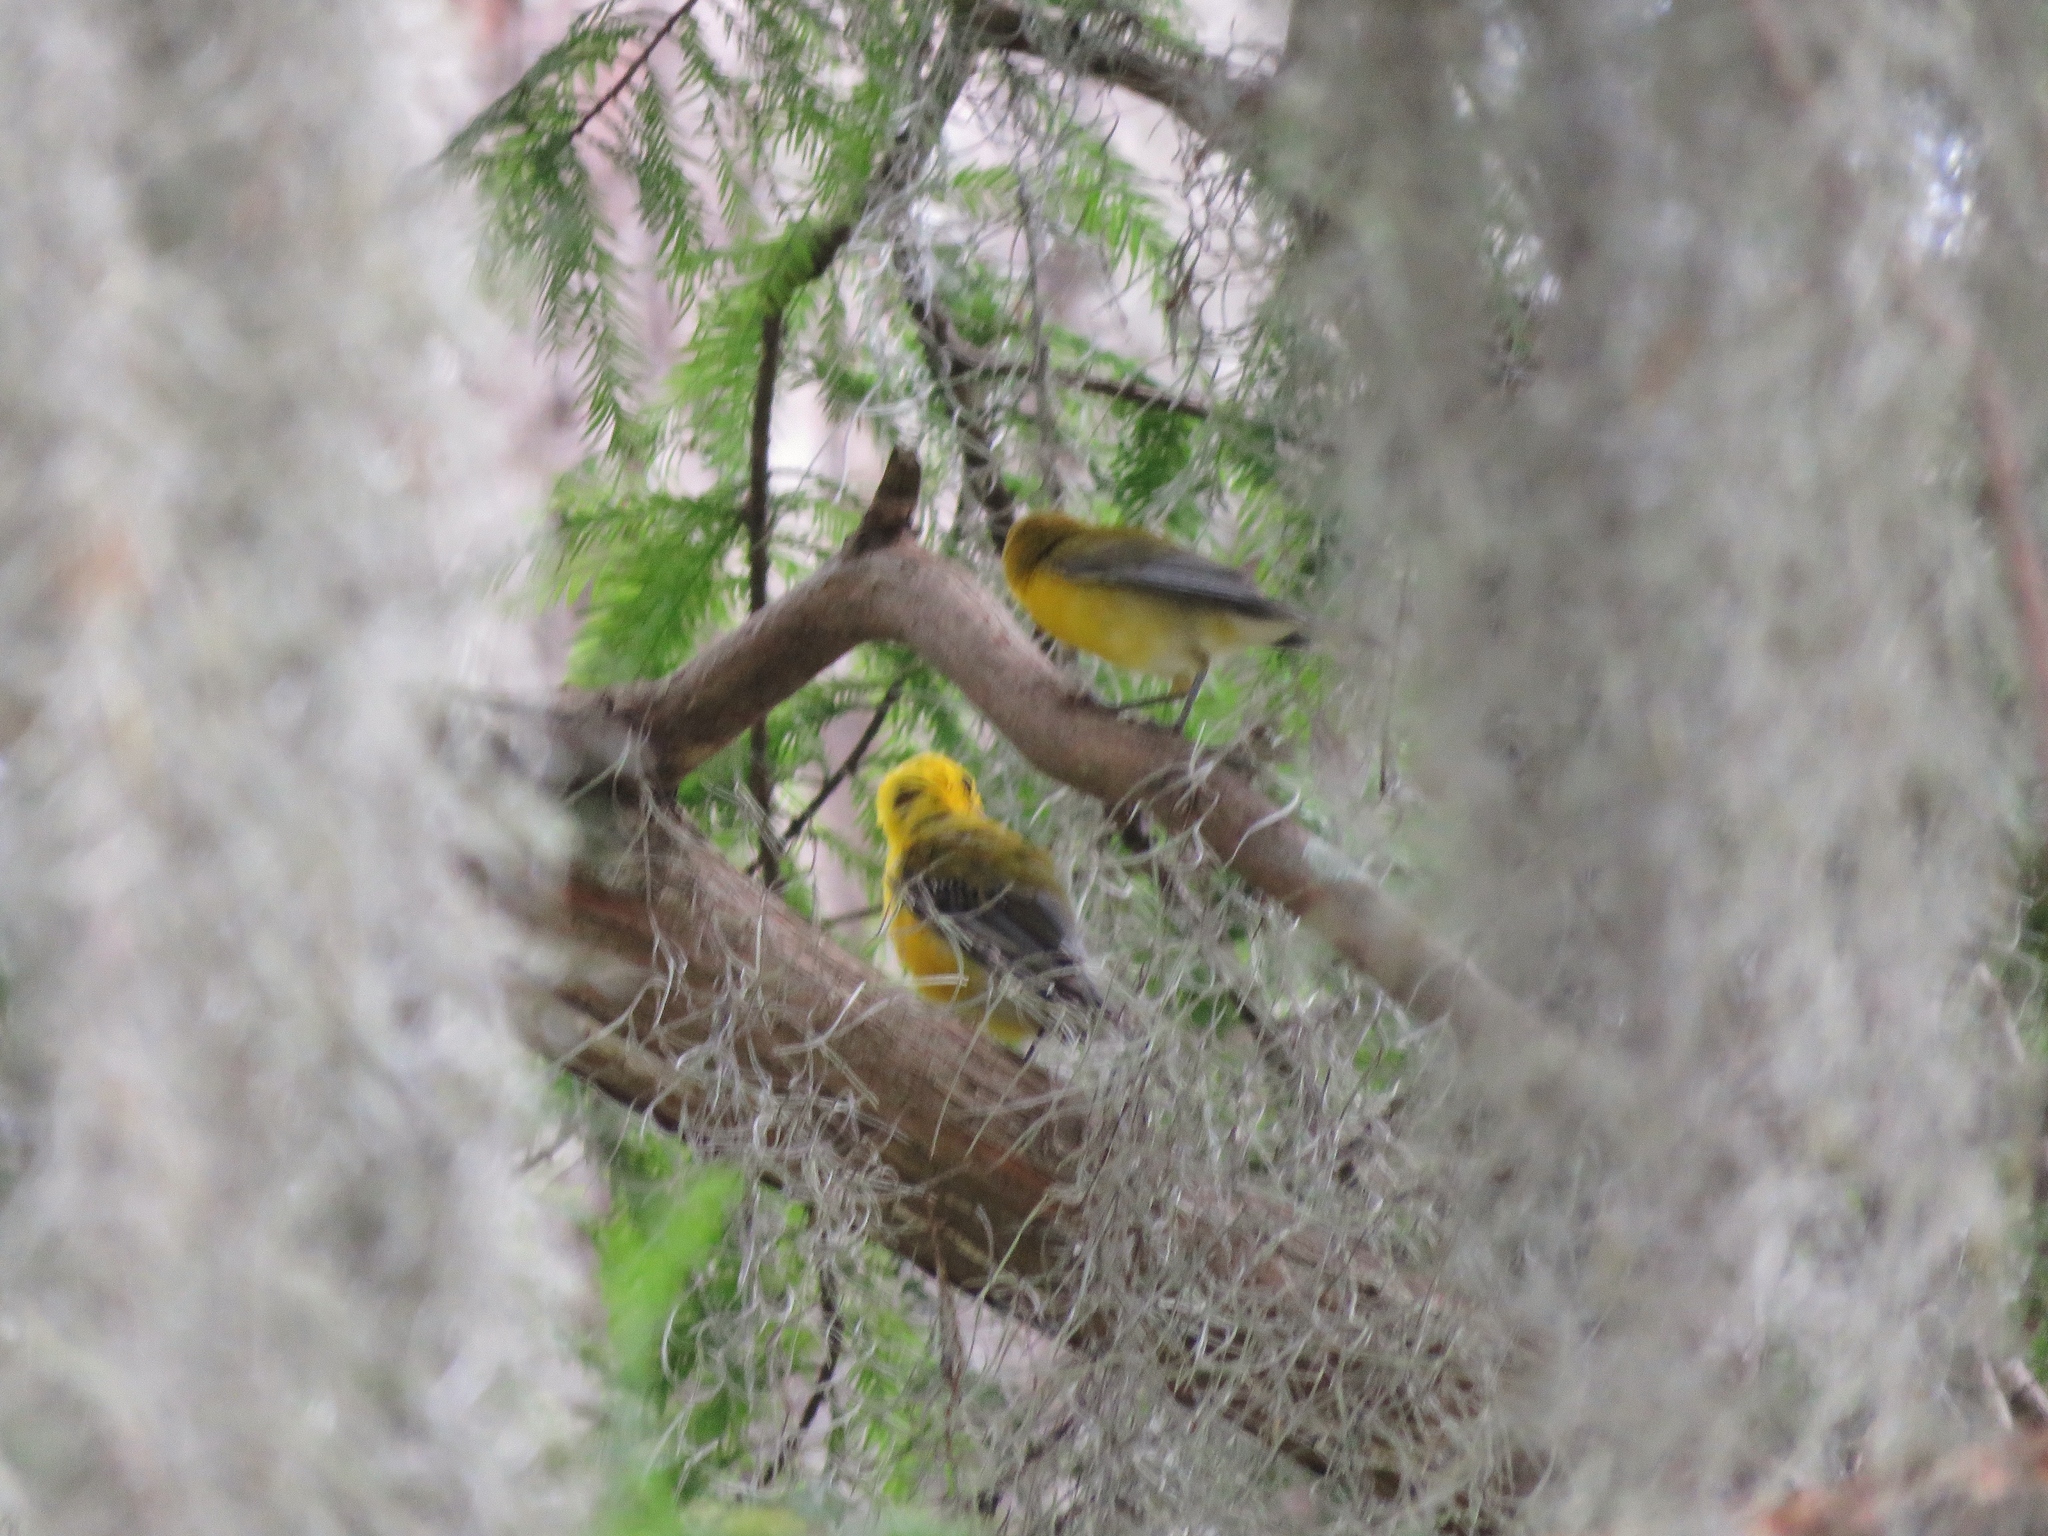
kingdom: Animalia
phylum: Chordata
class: Aves
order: Passeriformes
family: Parulidae
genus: Protonotaria
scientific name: Protonotaria citrea
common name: Prothonotary warbler
